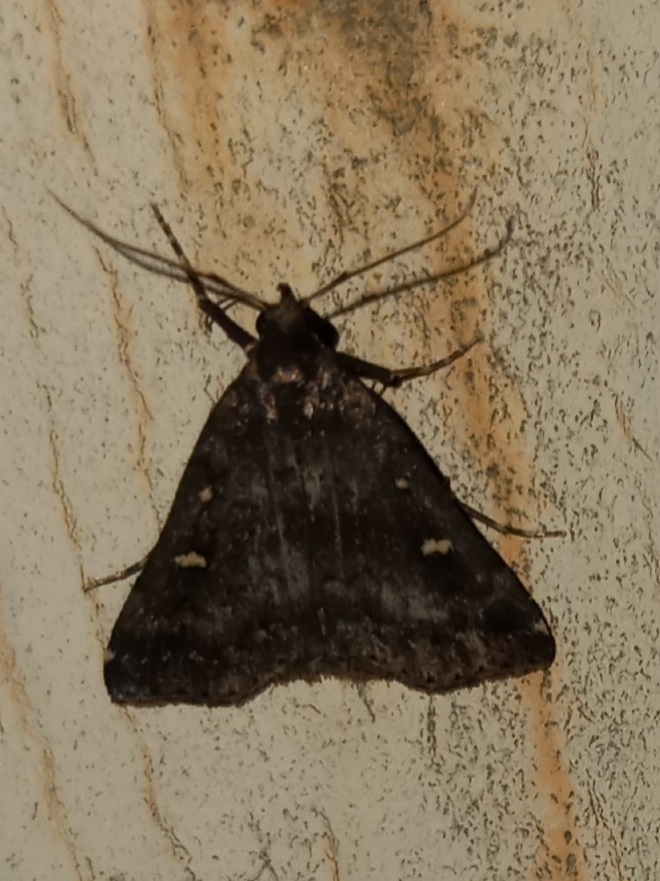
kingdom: Animalia
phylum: Arthropoda
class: Insecta
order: Lepidoptera
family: Erebidae
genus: Tetanolita
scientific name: Tetanolita mynesalis
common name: Smoky tetanolita moth
